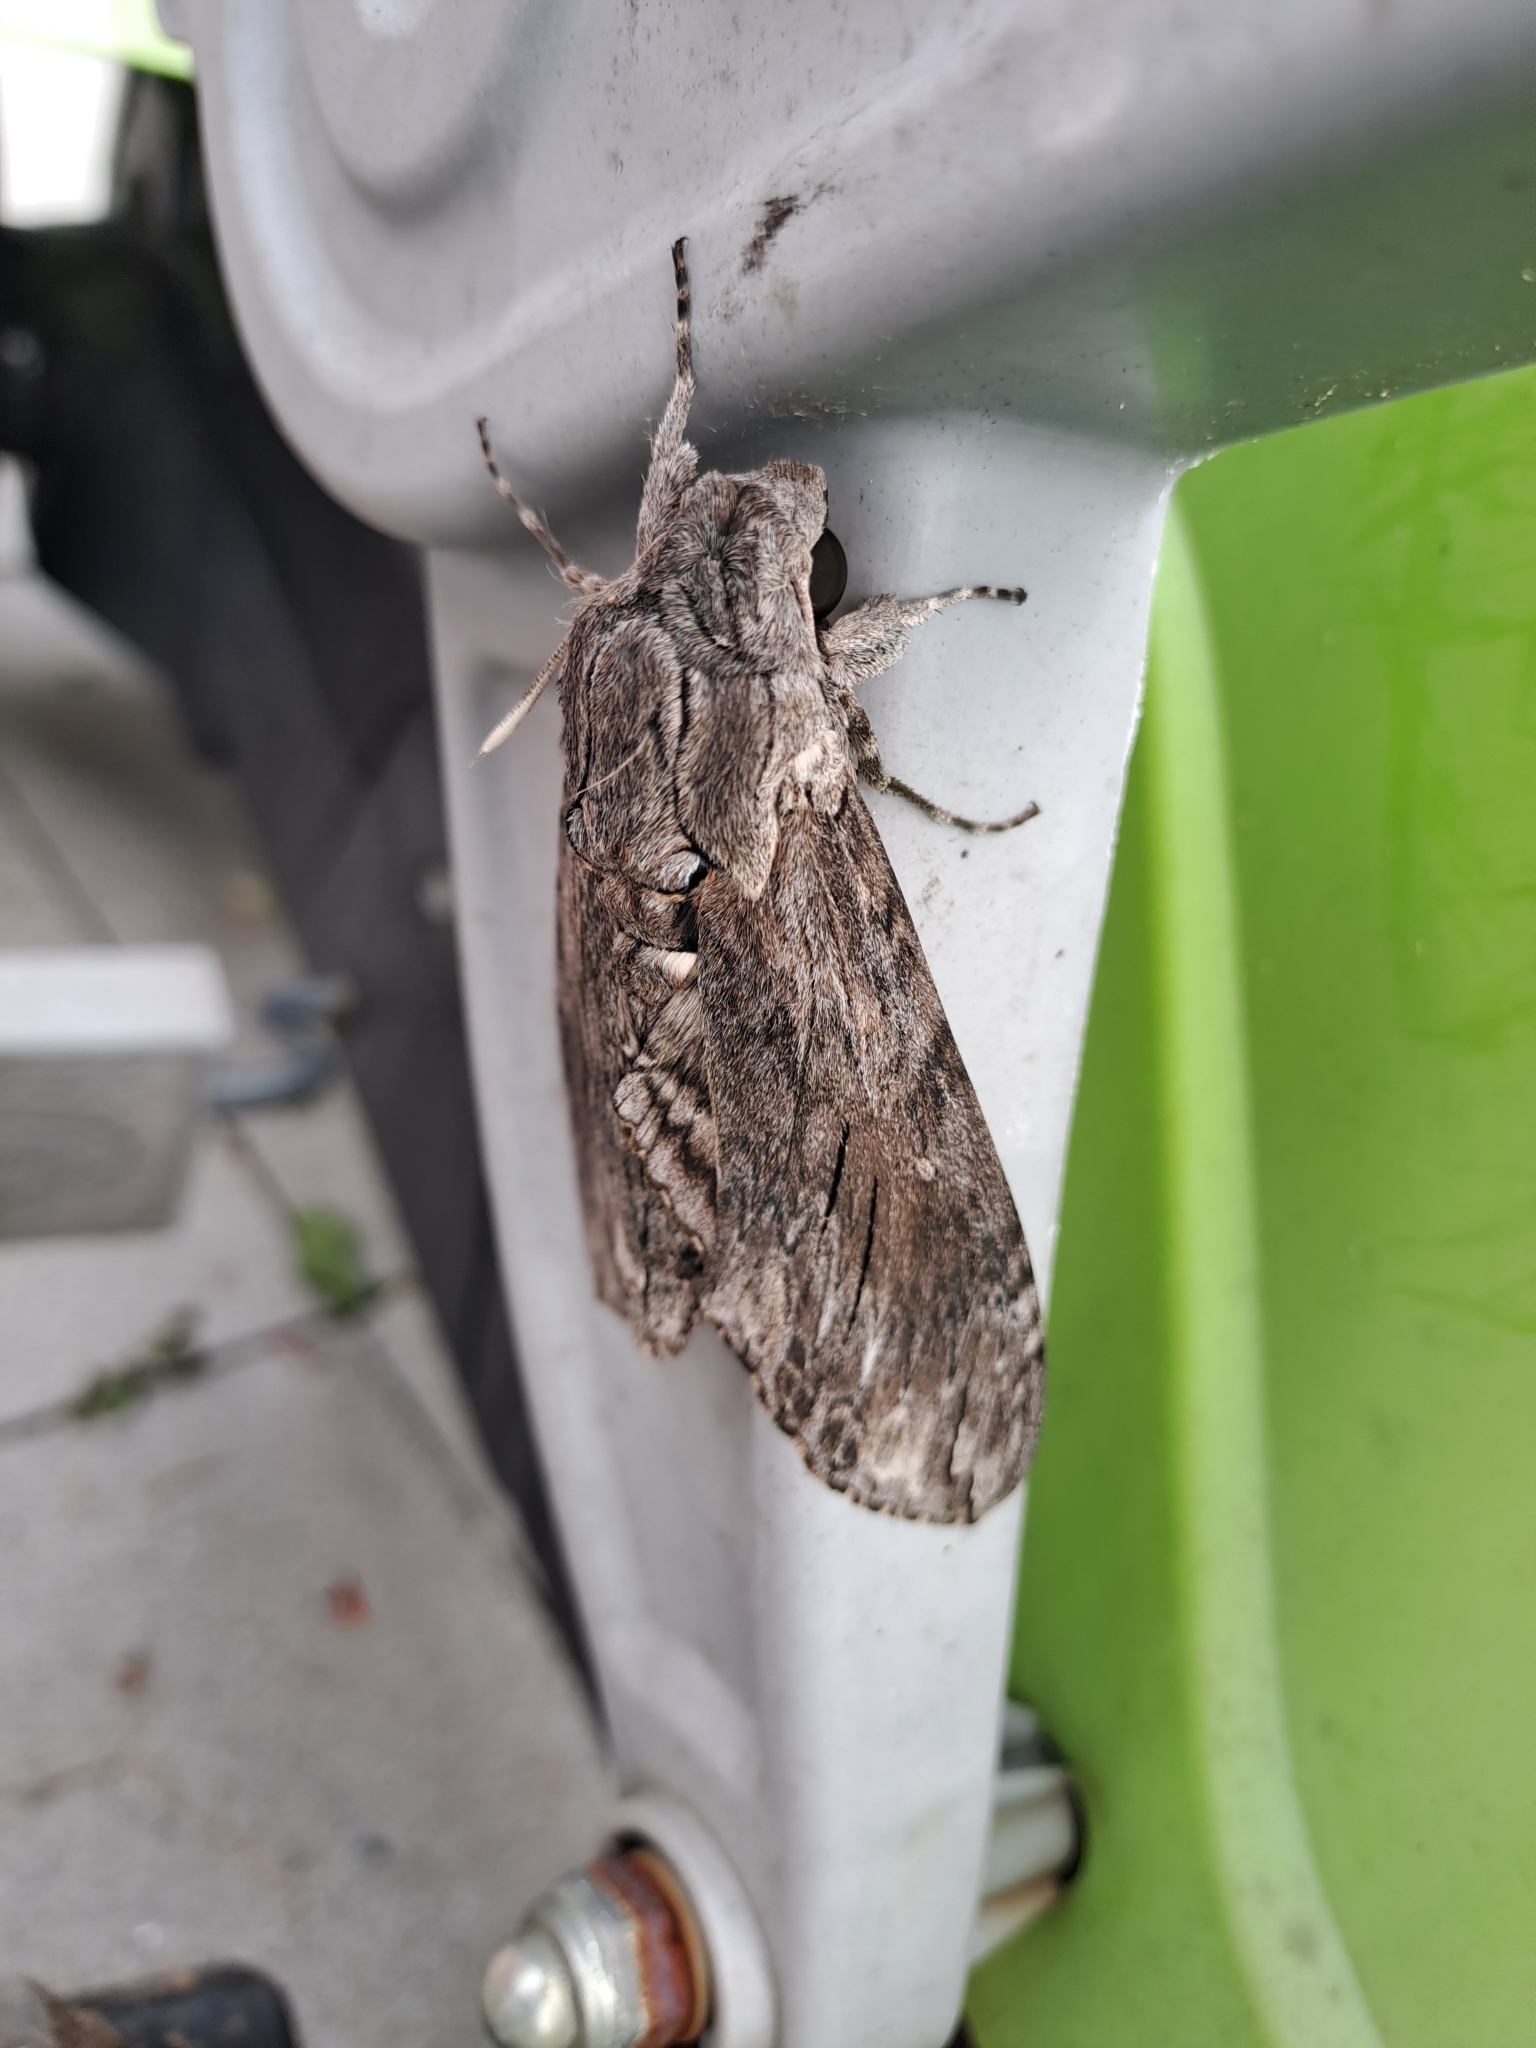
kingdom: Animalia
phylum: Arthropoda
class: Insecta
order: Lepidoptera
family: Sphingidae
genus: Agrius
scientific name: Agrius convolvuli
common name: Convolvulus hawkmoth
